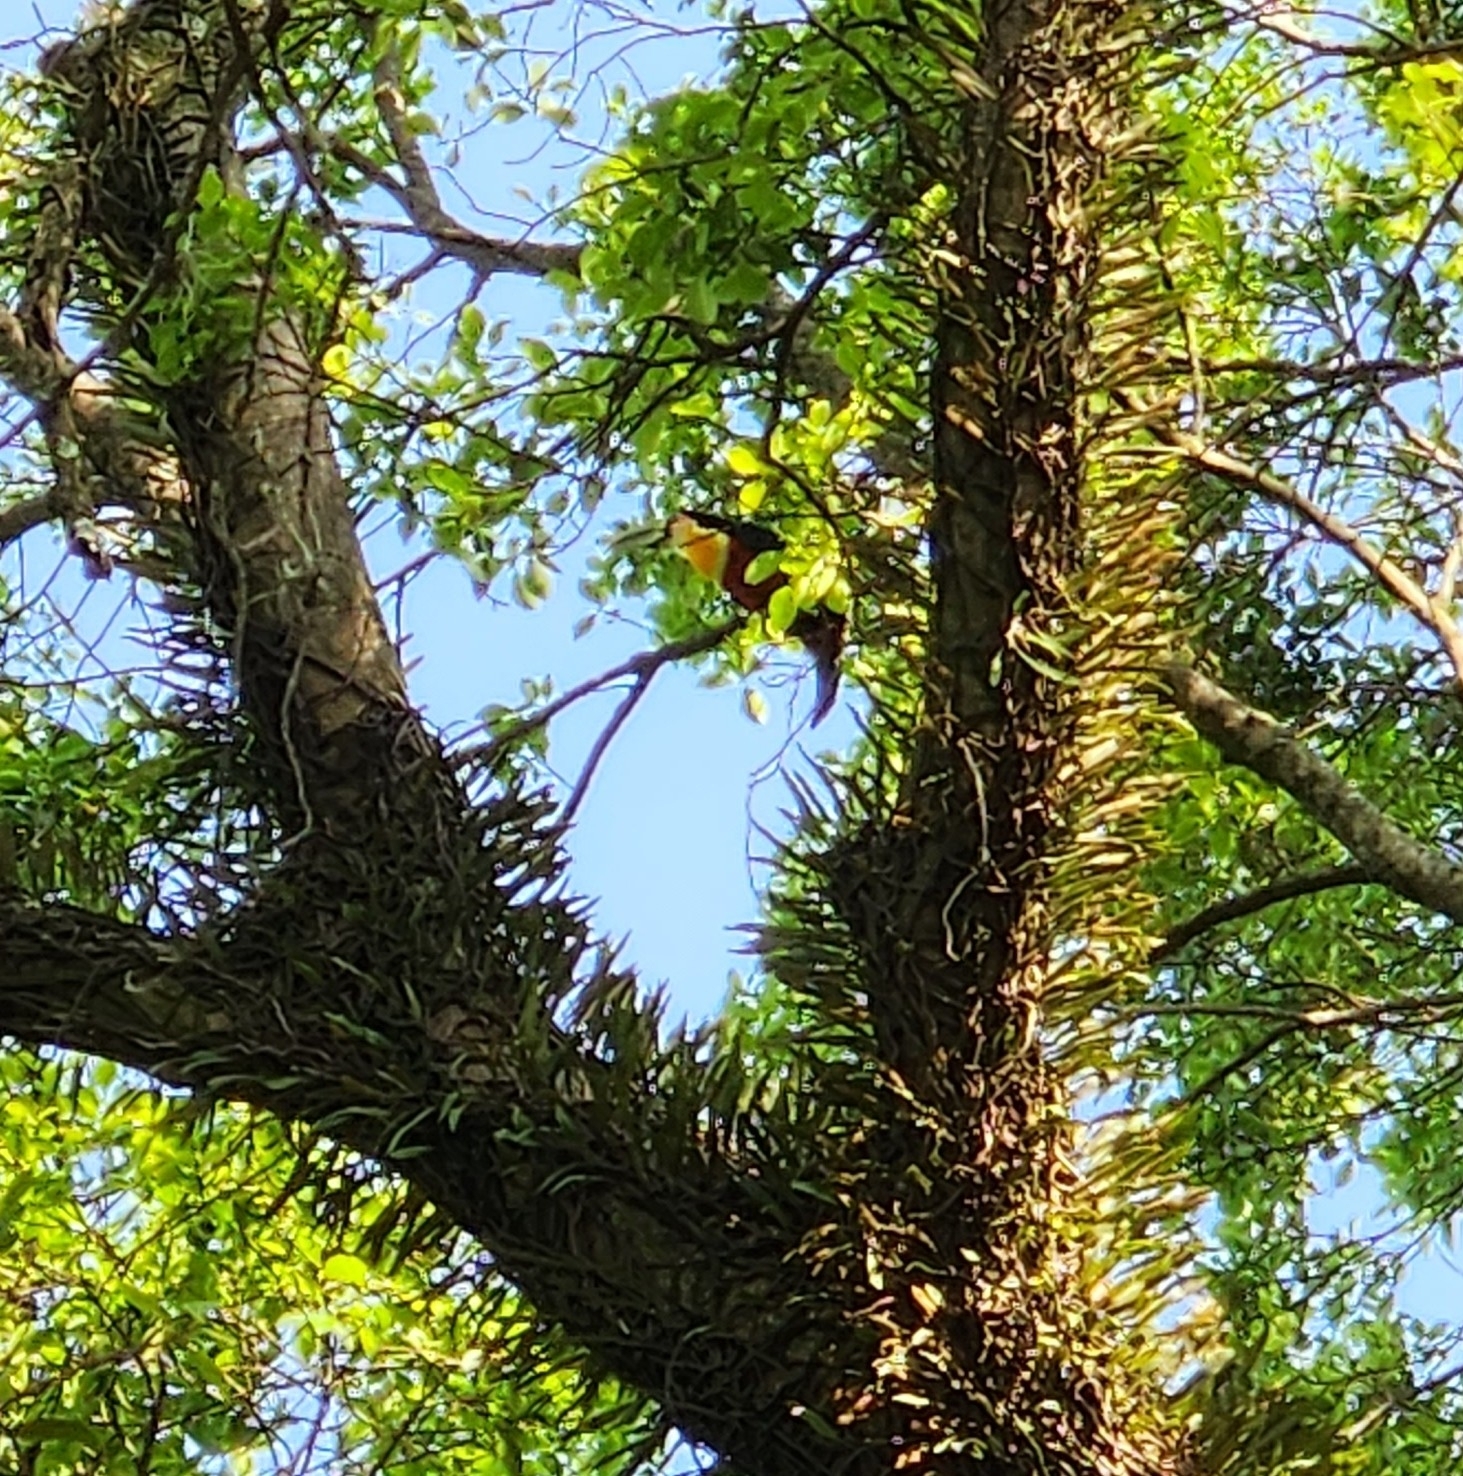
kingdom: Animalia
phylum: Chordata
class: Aves
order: Piciformes
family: Ramphastidae
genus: Ramphastos
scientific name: Ramphastos dicolorus
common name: Green-billed toucan
